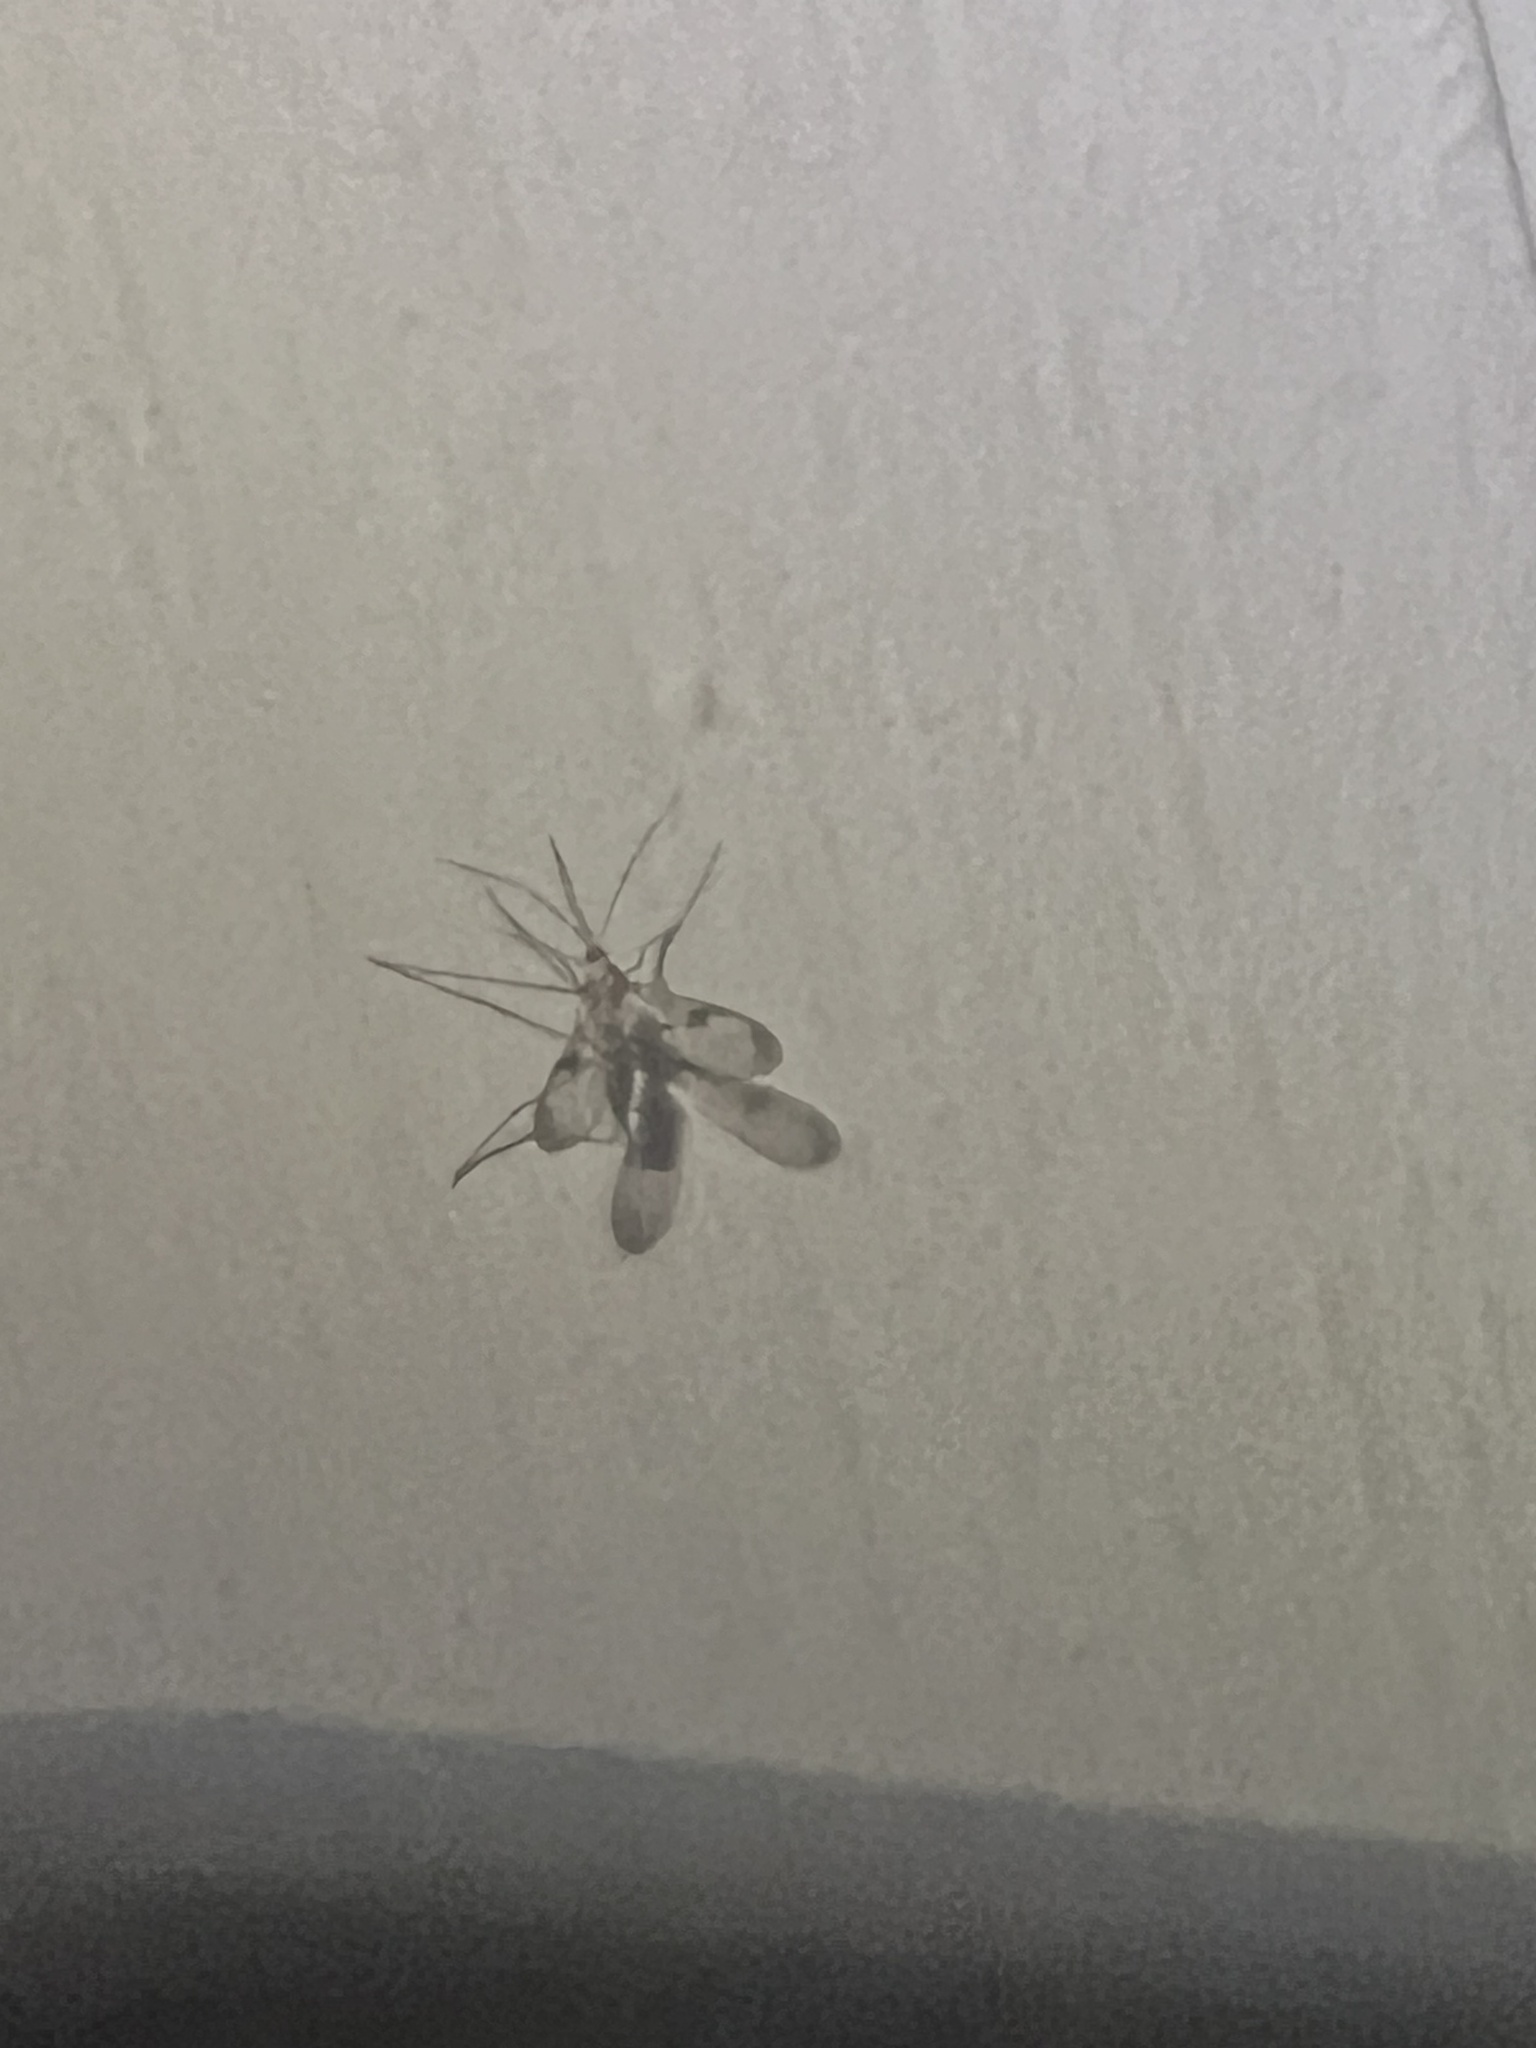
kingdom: Animalia
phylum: Arthropoda
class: Insecta
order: Diptera
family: Keroplatidae
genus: Macrocera
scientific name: Macrocera scoparia
